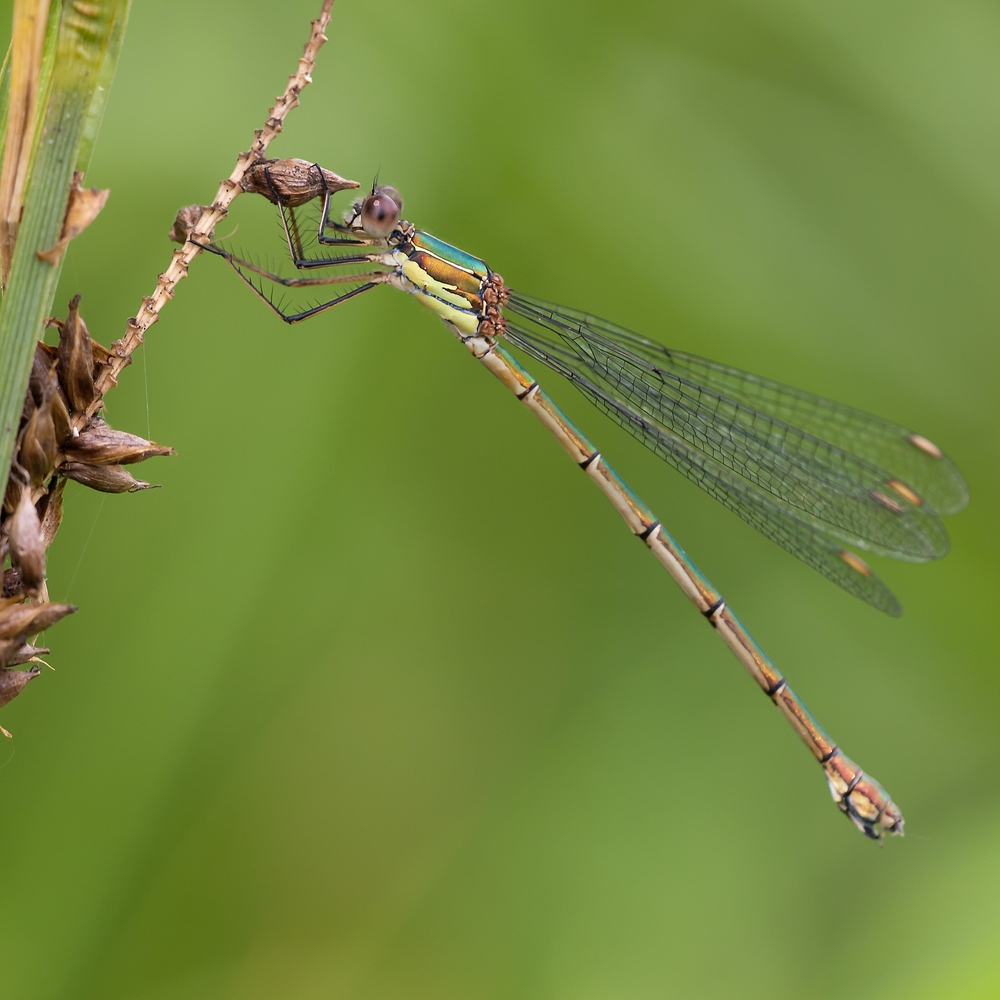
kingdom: Animalia
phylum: Arthropoda
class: Insecta
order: Odonata
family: Lestidae
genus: Chalcolestes
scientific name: Chalcolestes viridis
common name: Green emerald damselfly
